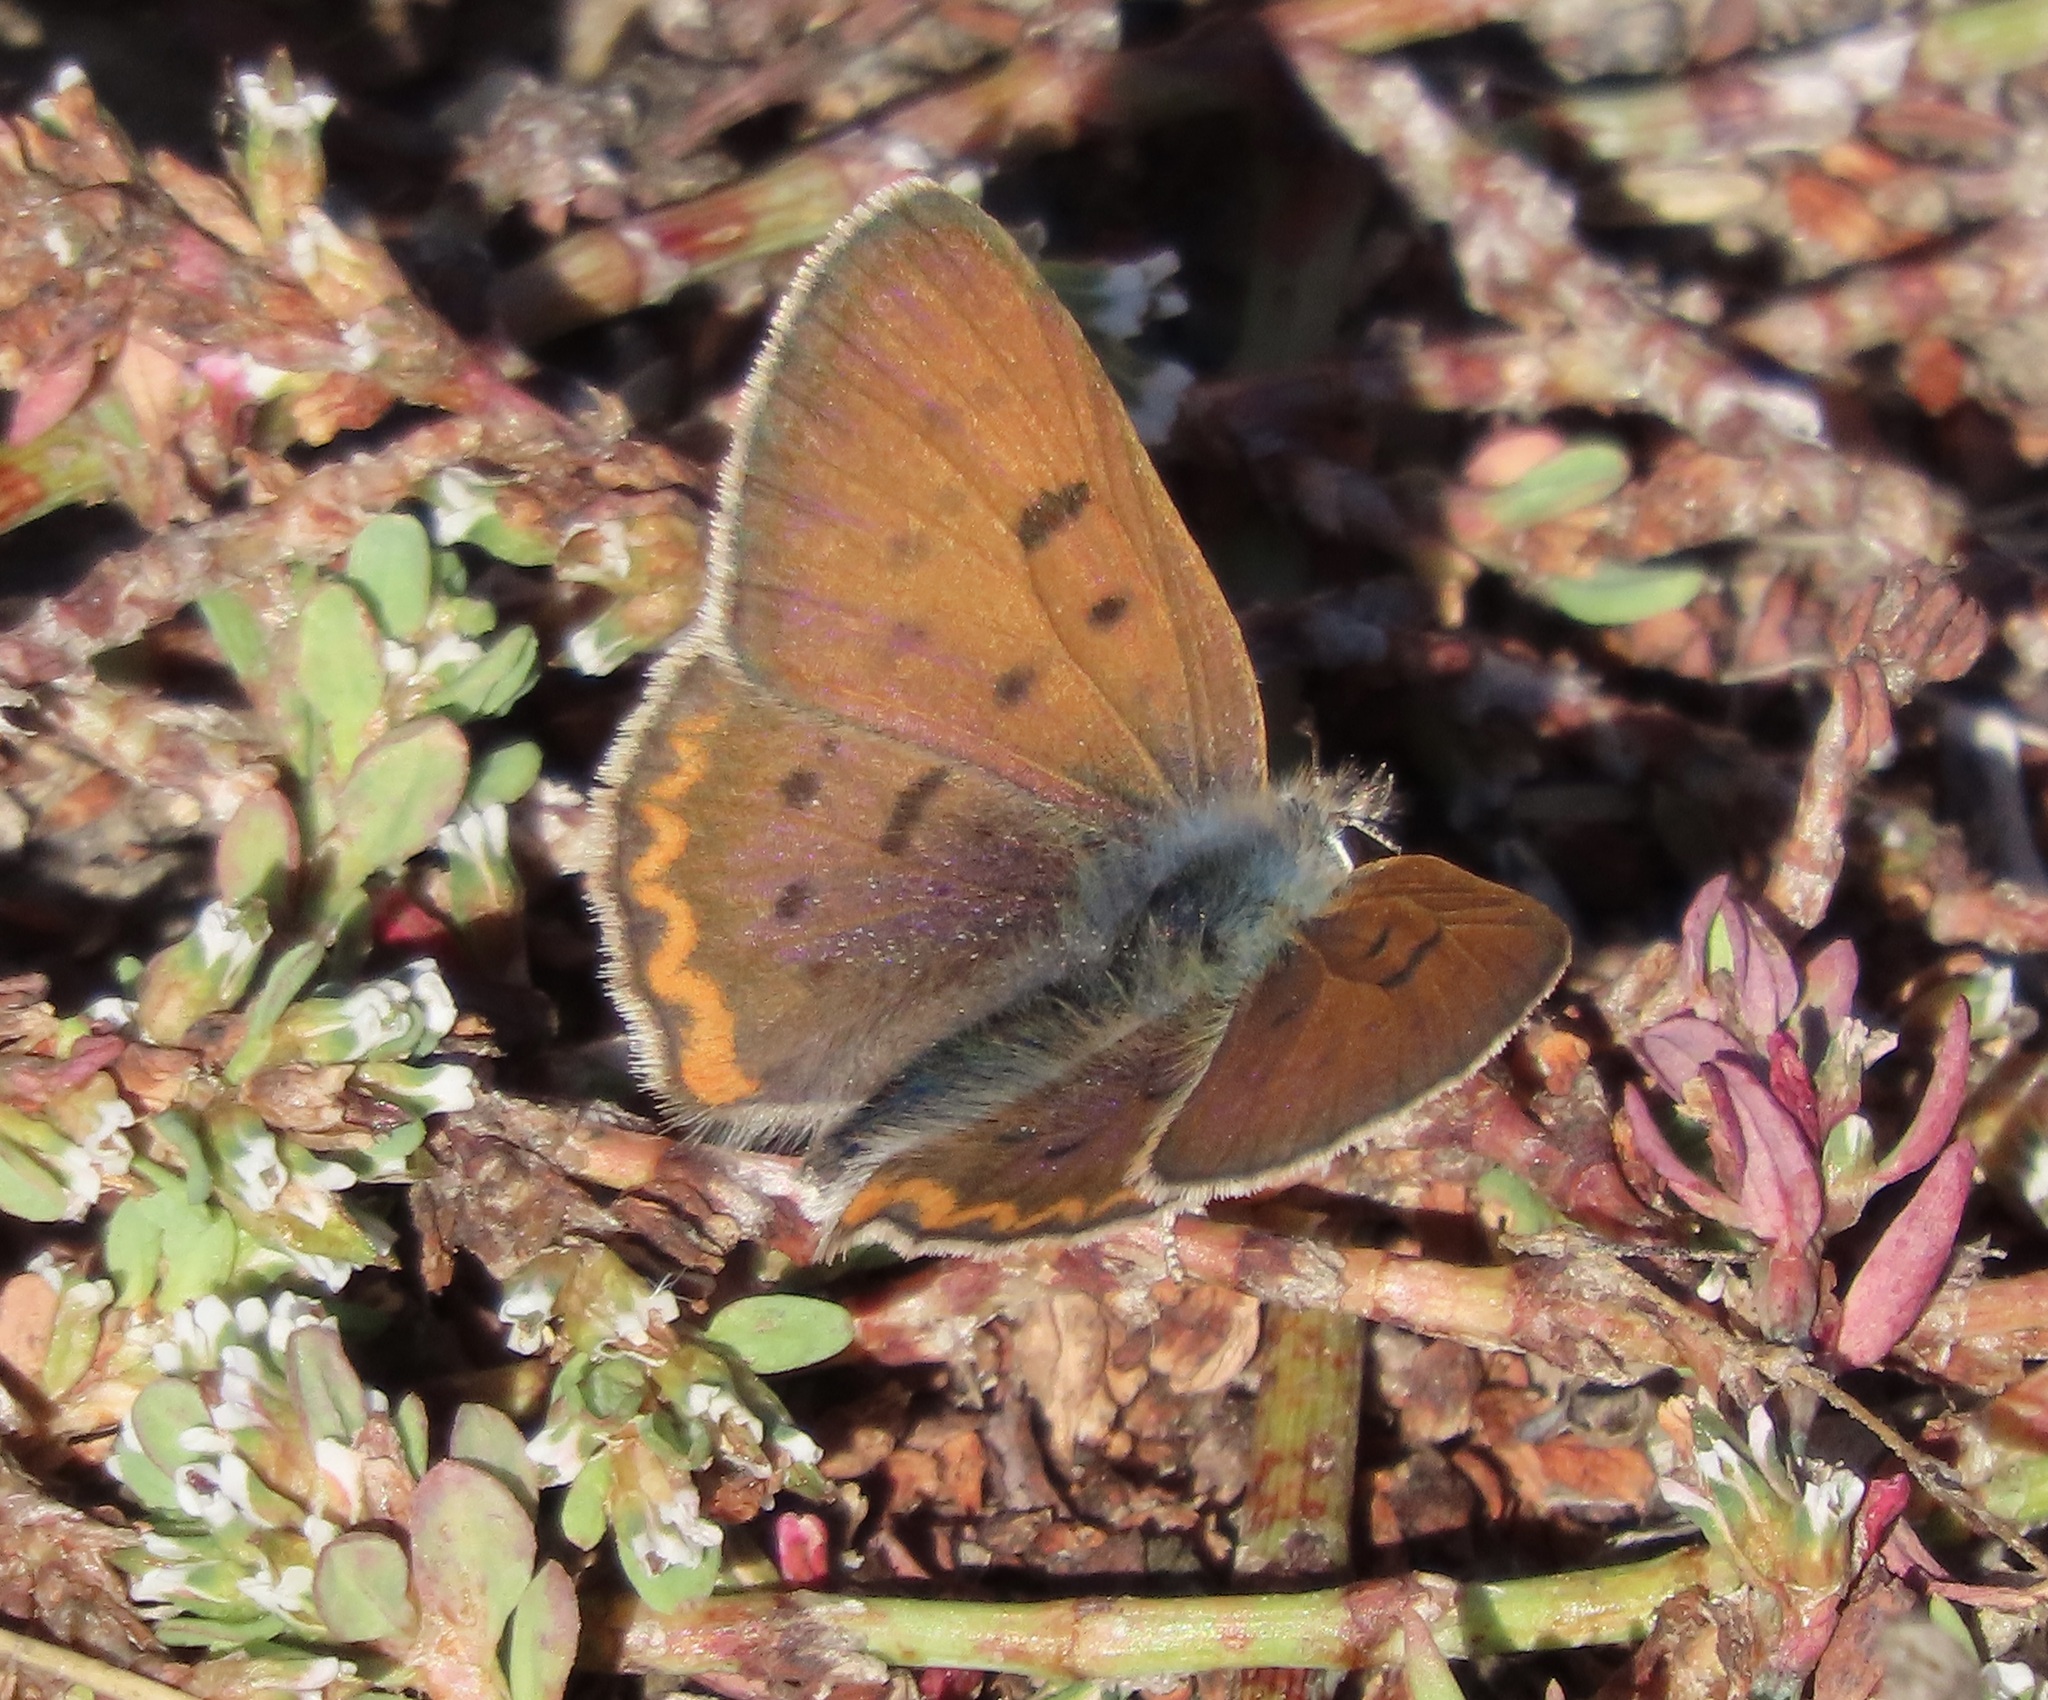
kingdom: Animalia
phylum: Arthropoda
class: Insecta
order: Lepidoptera
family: Lycaenidae
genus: Tharsalea
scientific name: Tharsalea helloides
